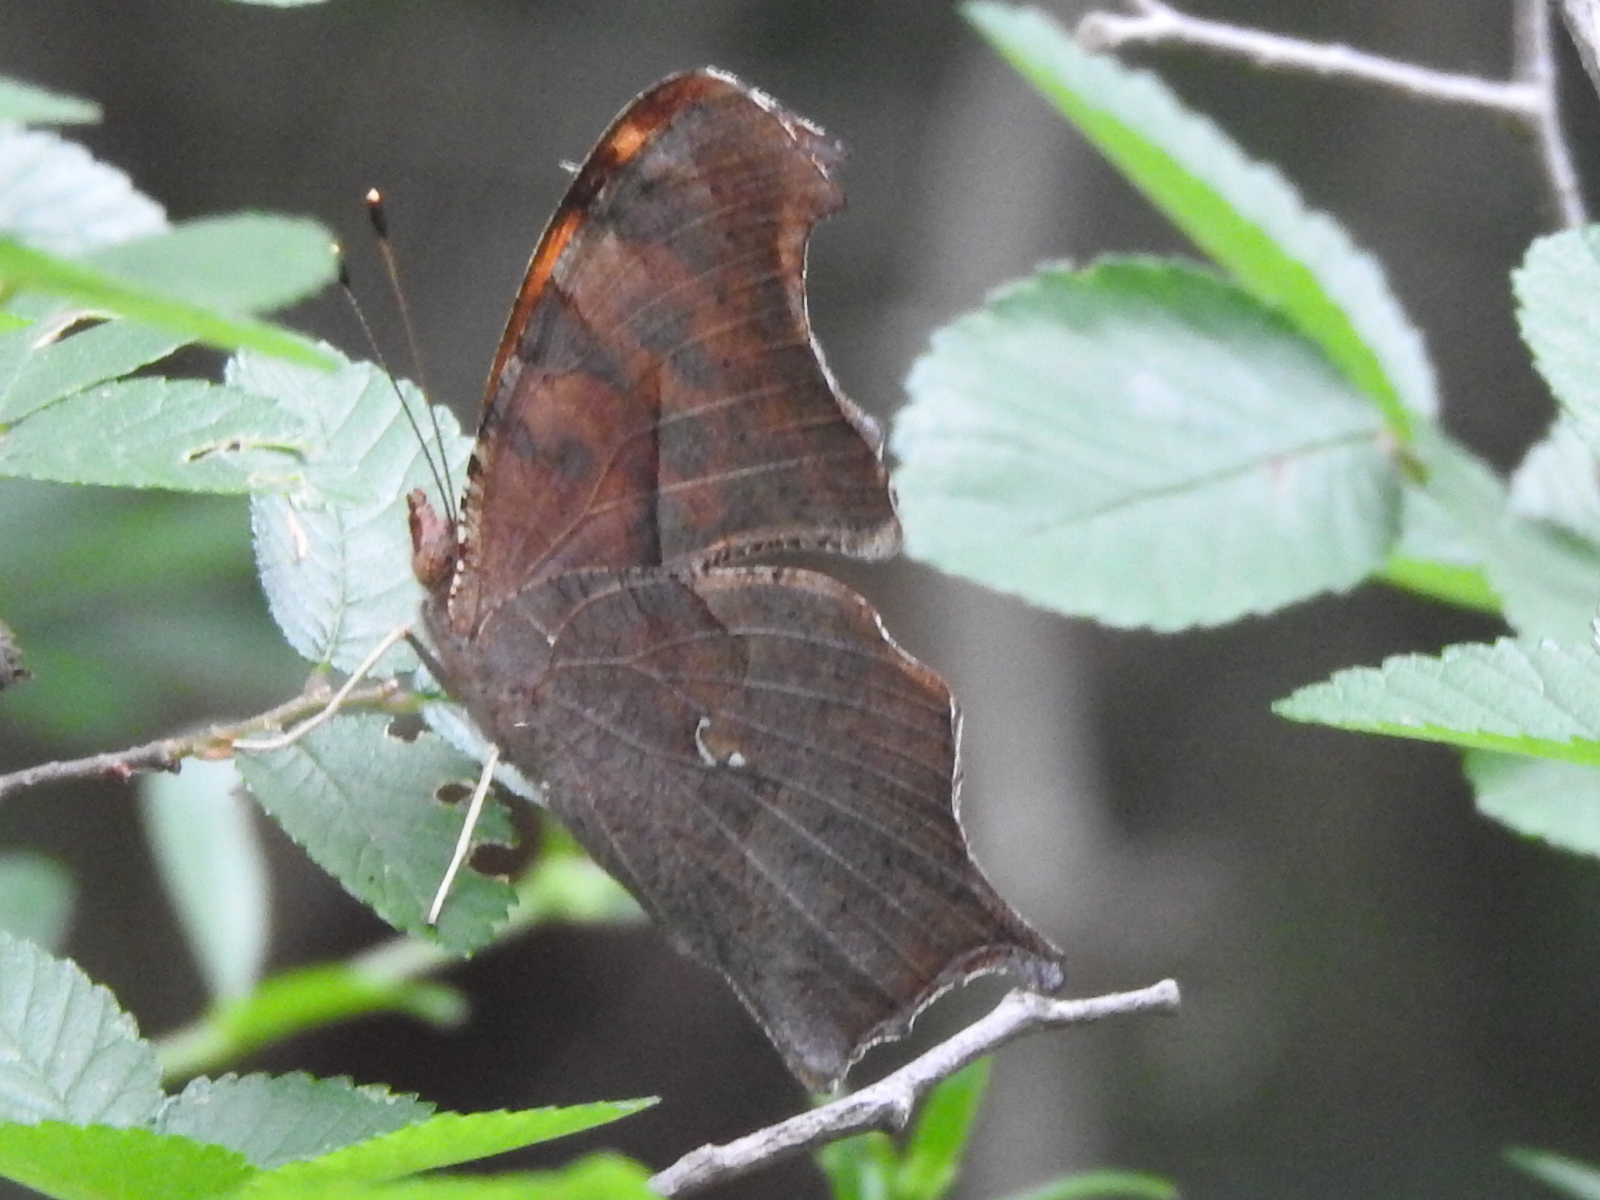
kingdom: Animalia
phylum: Arthropoda
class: Insecta
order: Lepidoptera
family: Nymphalidae
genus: Polygonia
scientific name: Polygonia interrogationis
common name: Question mark
